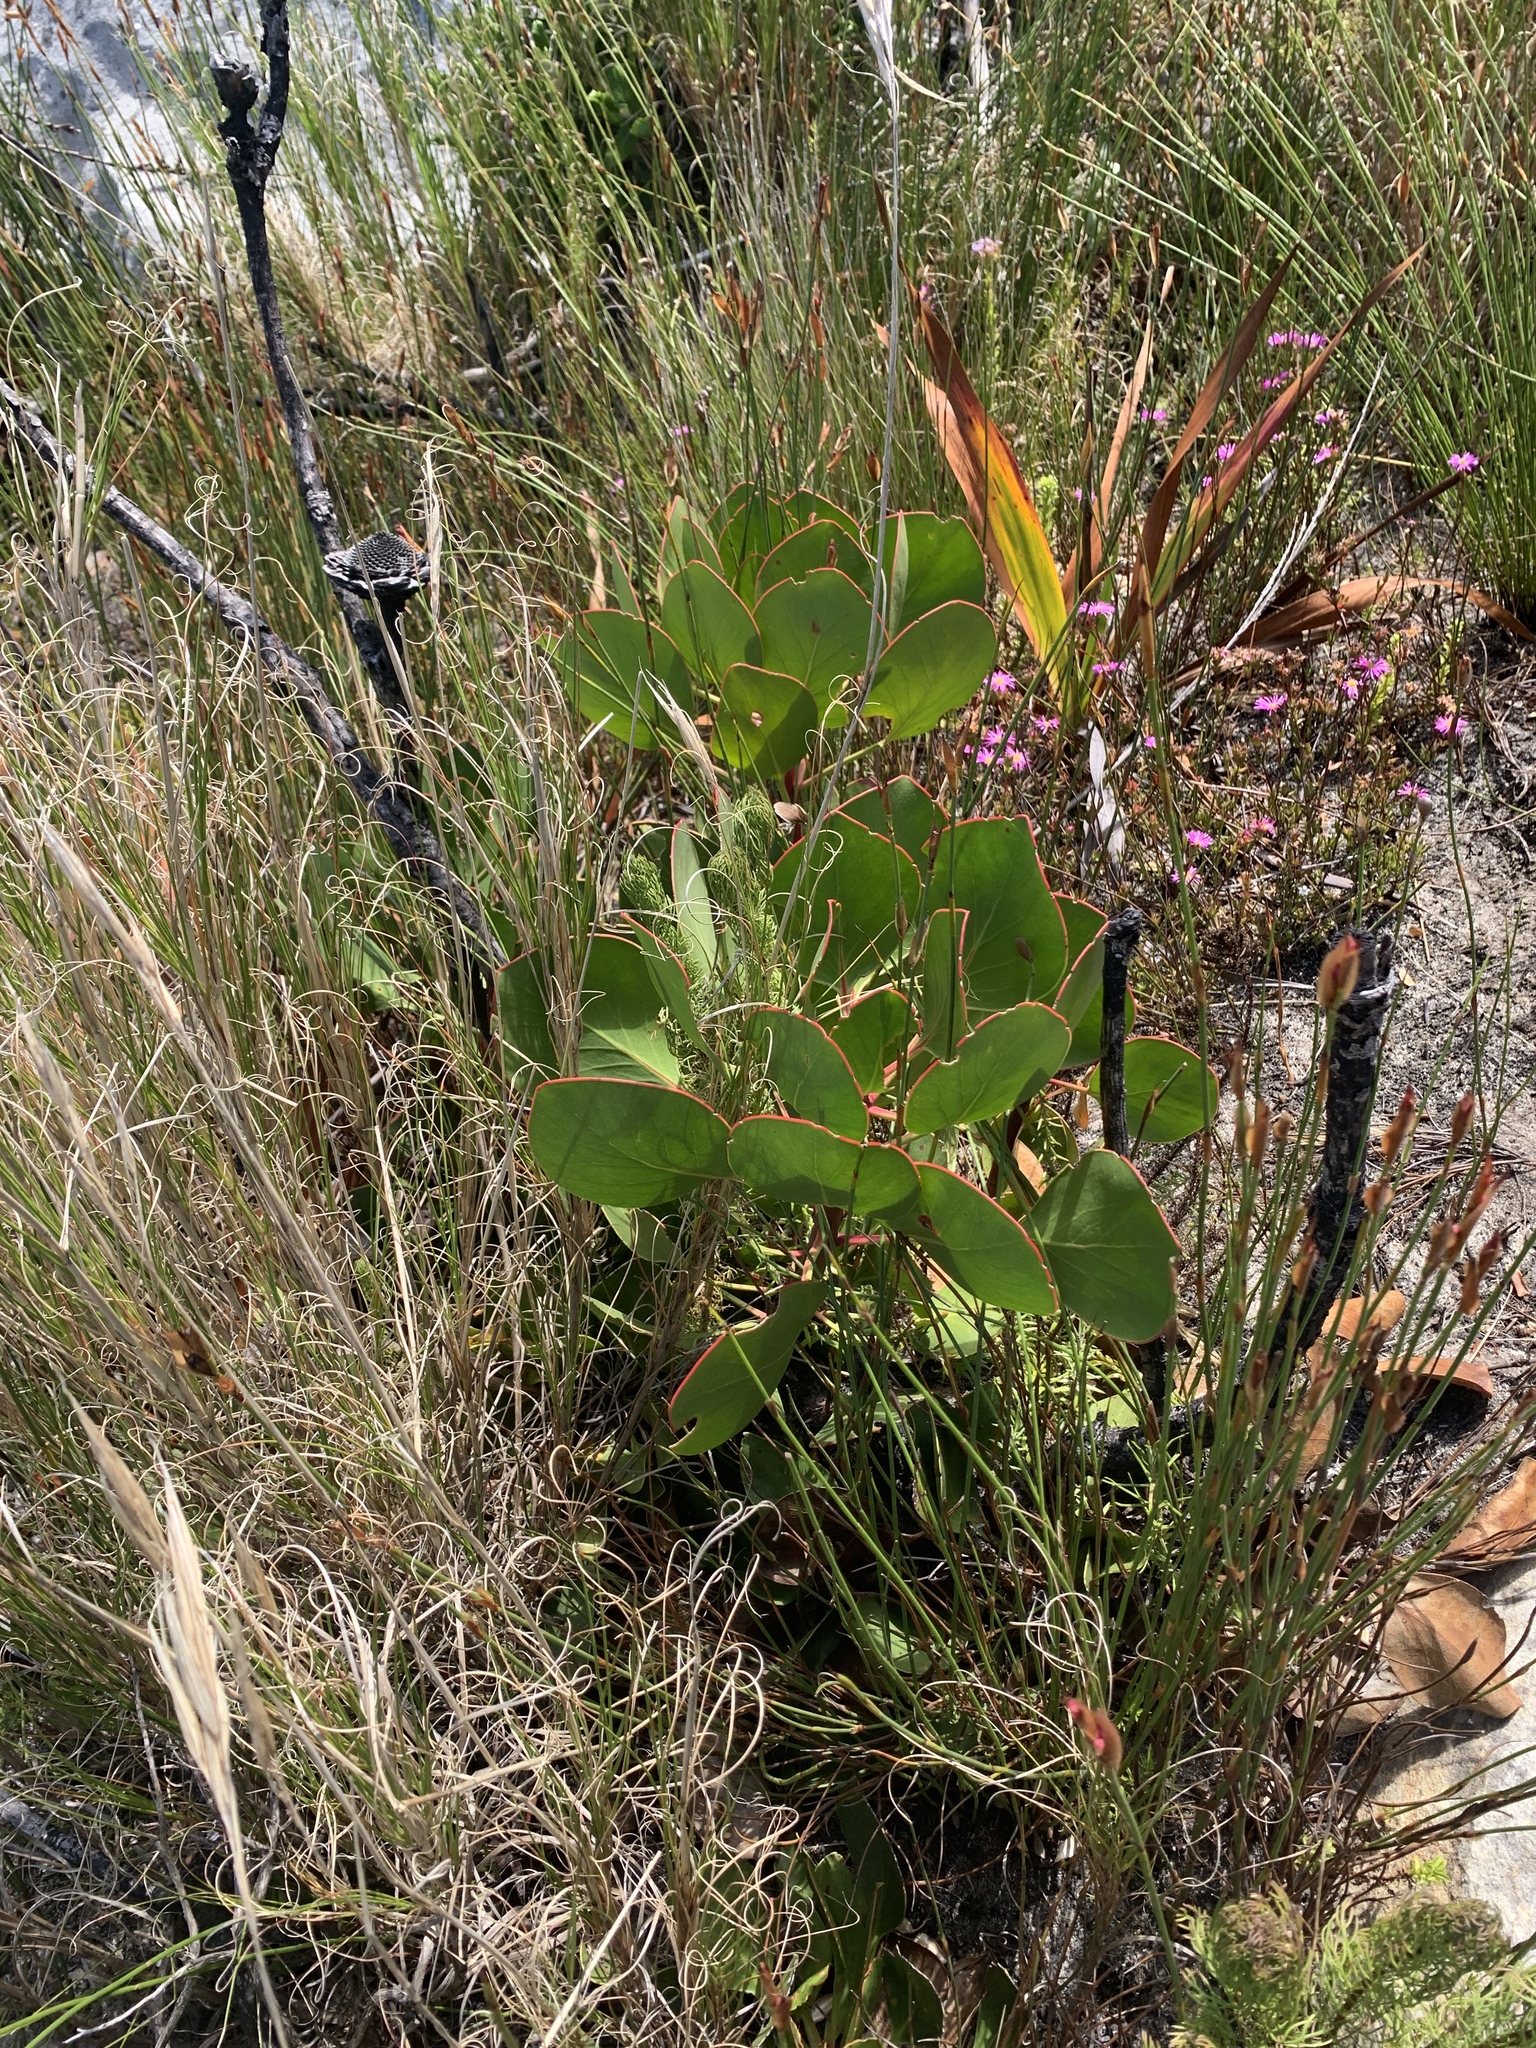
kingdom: Plantae
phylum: Tracheophyta
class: Magnoliopsida
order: Proteales
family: Proteaceae
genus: Protea
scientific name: Protea cynaroides
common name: King protea
